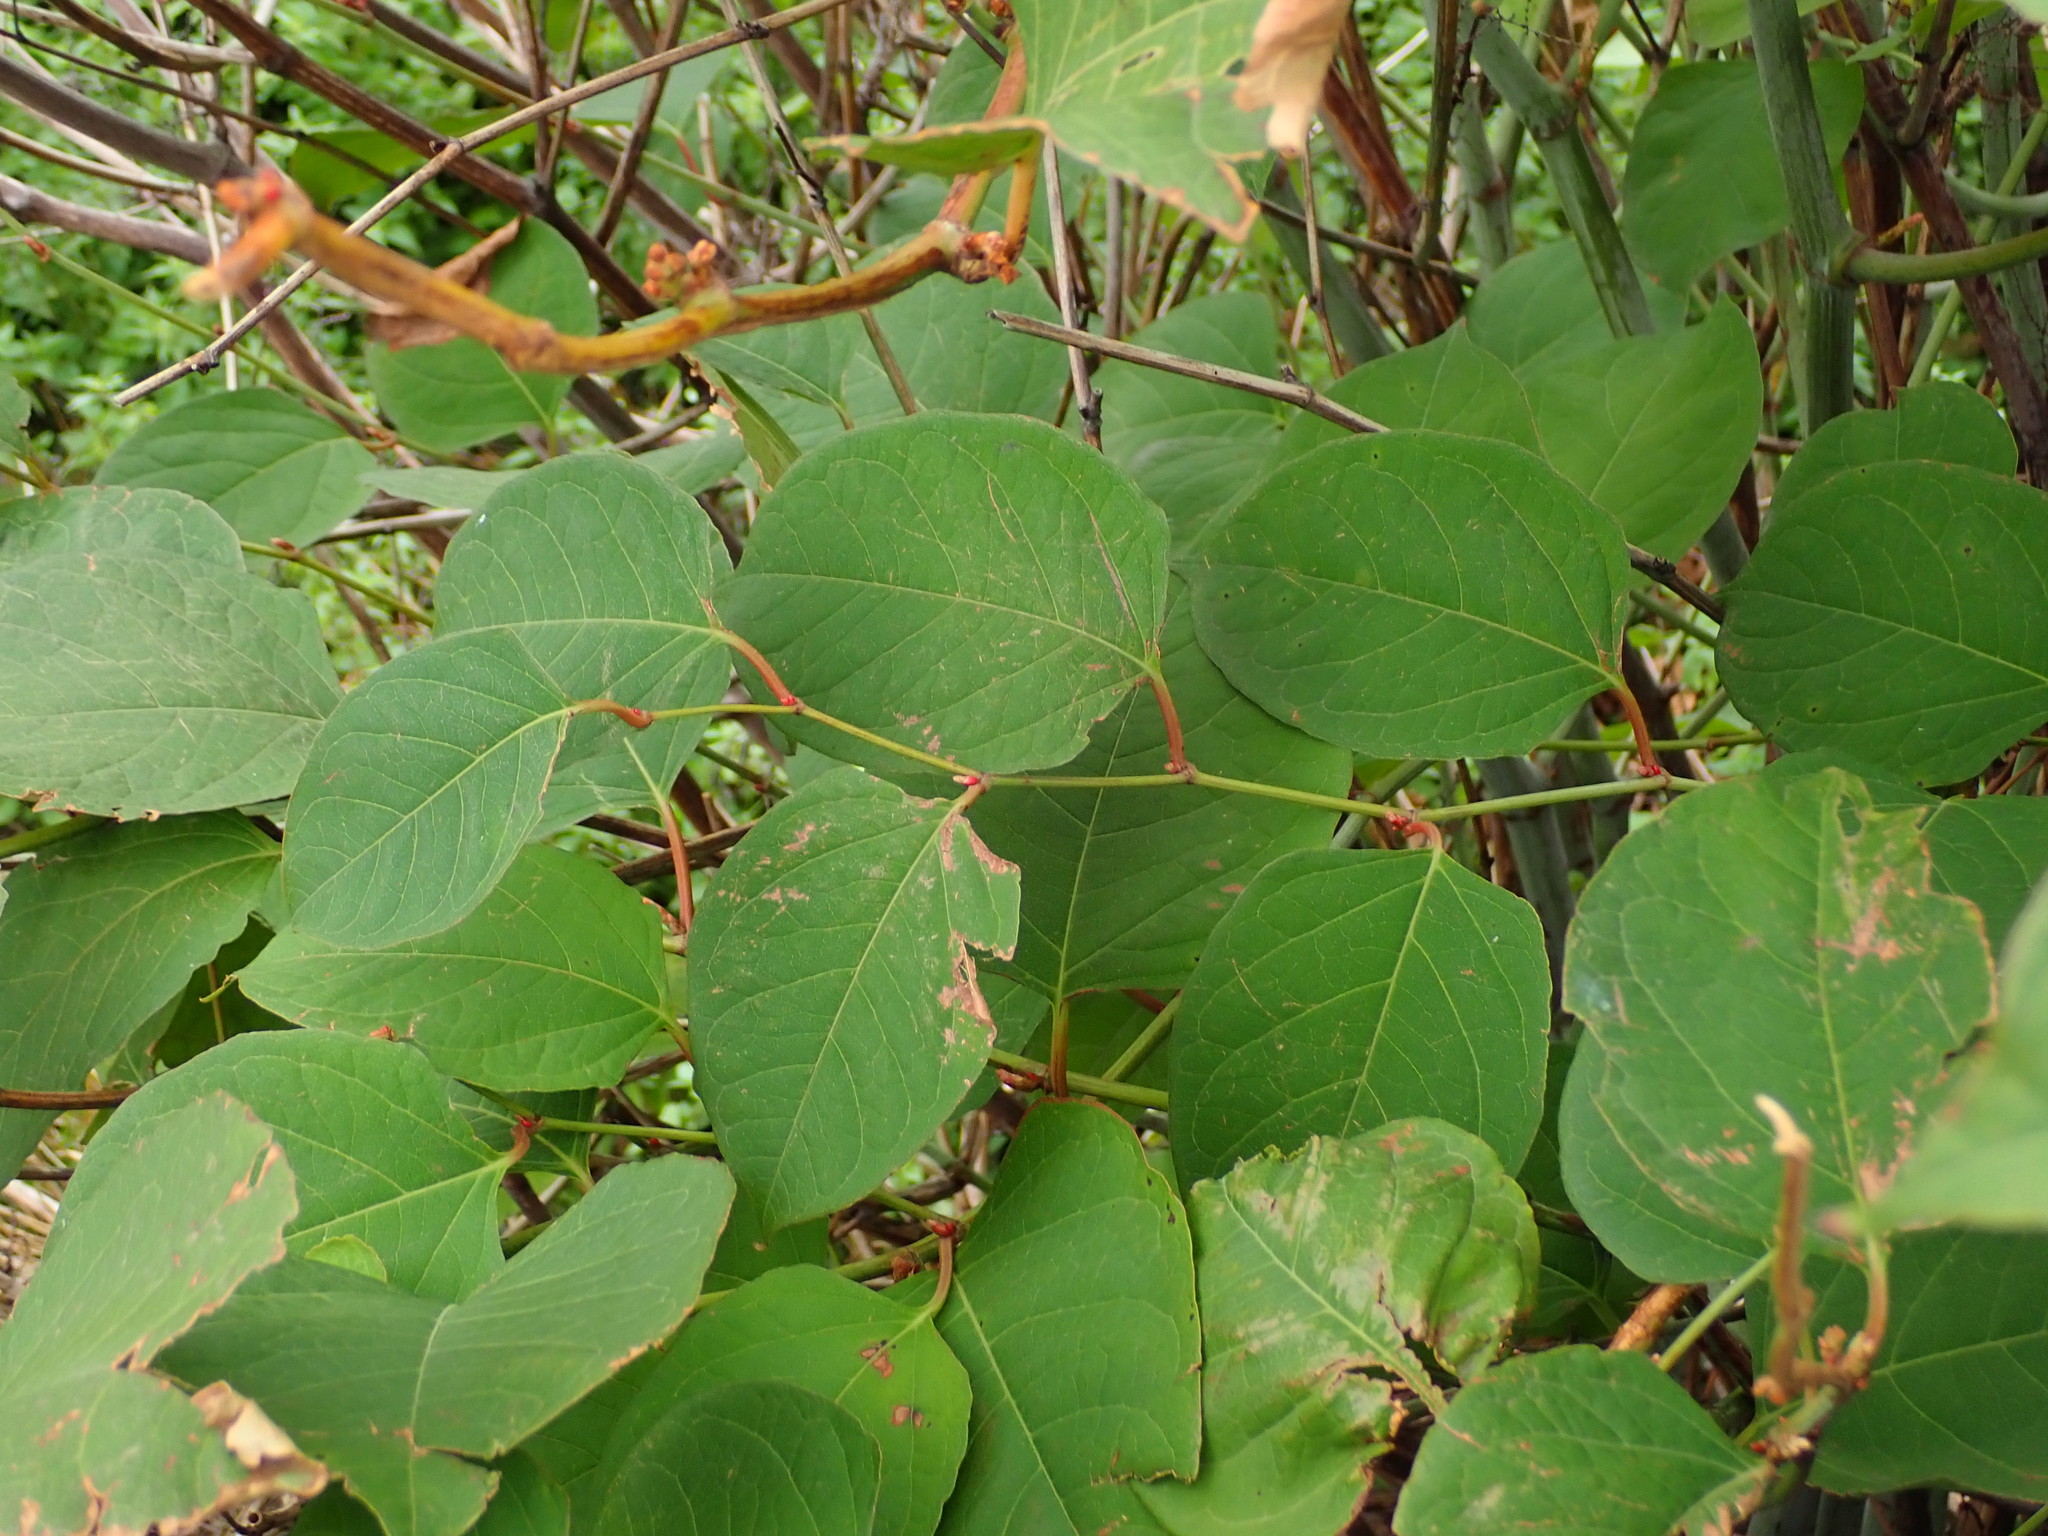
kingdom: Plantae
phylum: Tracheophyta
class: Magnoliopsida
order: Caryophyllales
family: Polygonaceae
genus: Reynoutria
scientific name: Reynoutria japonica
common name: Japanese knotweed
